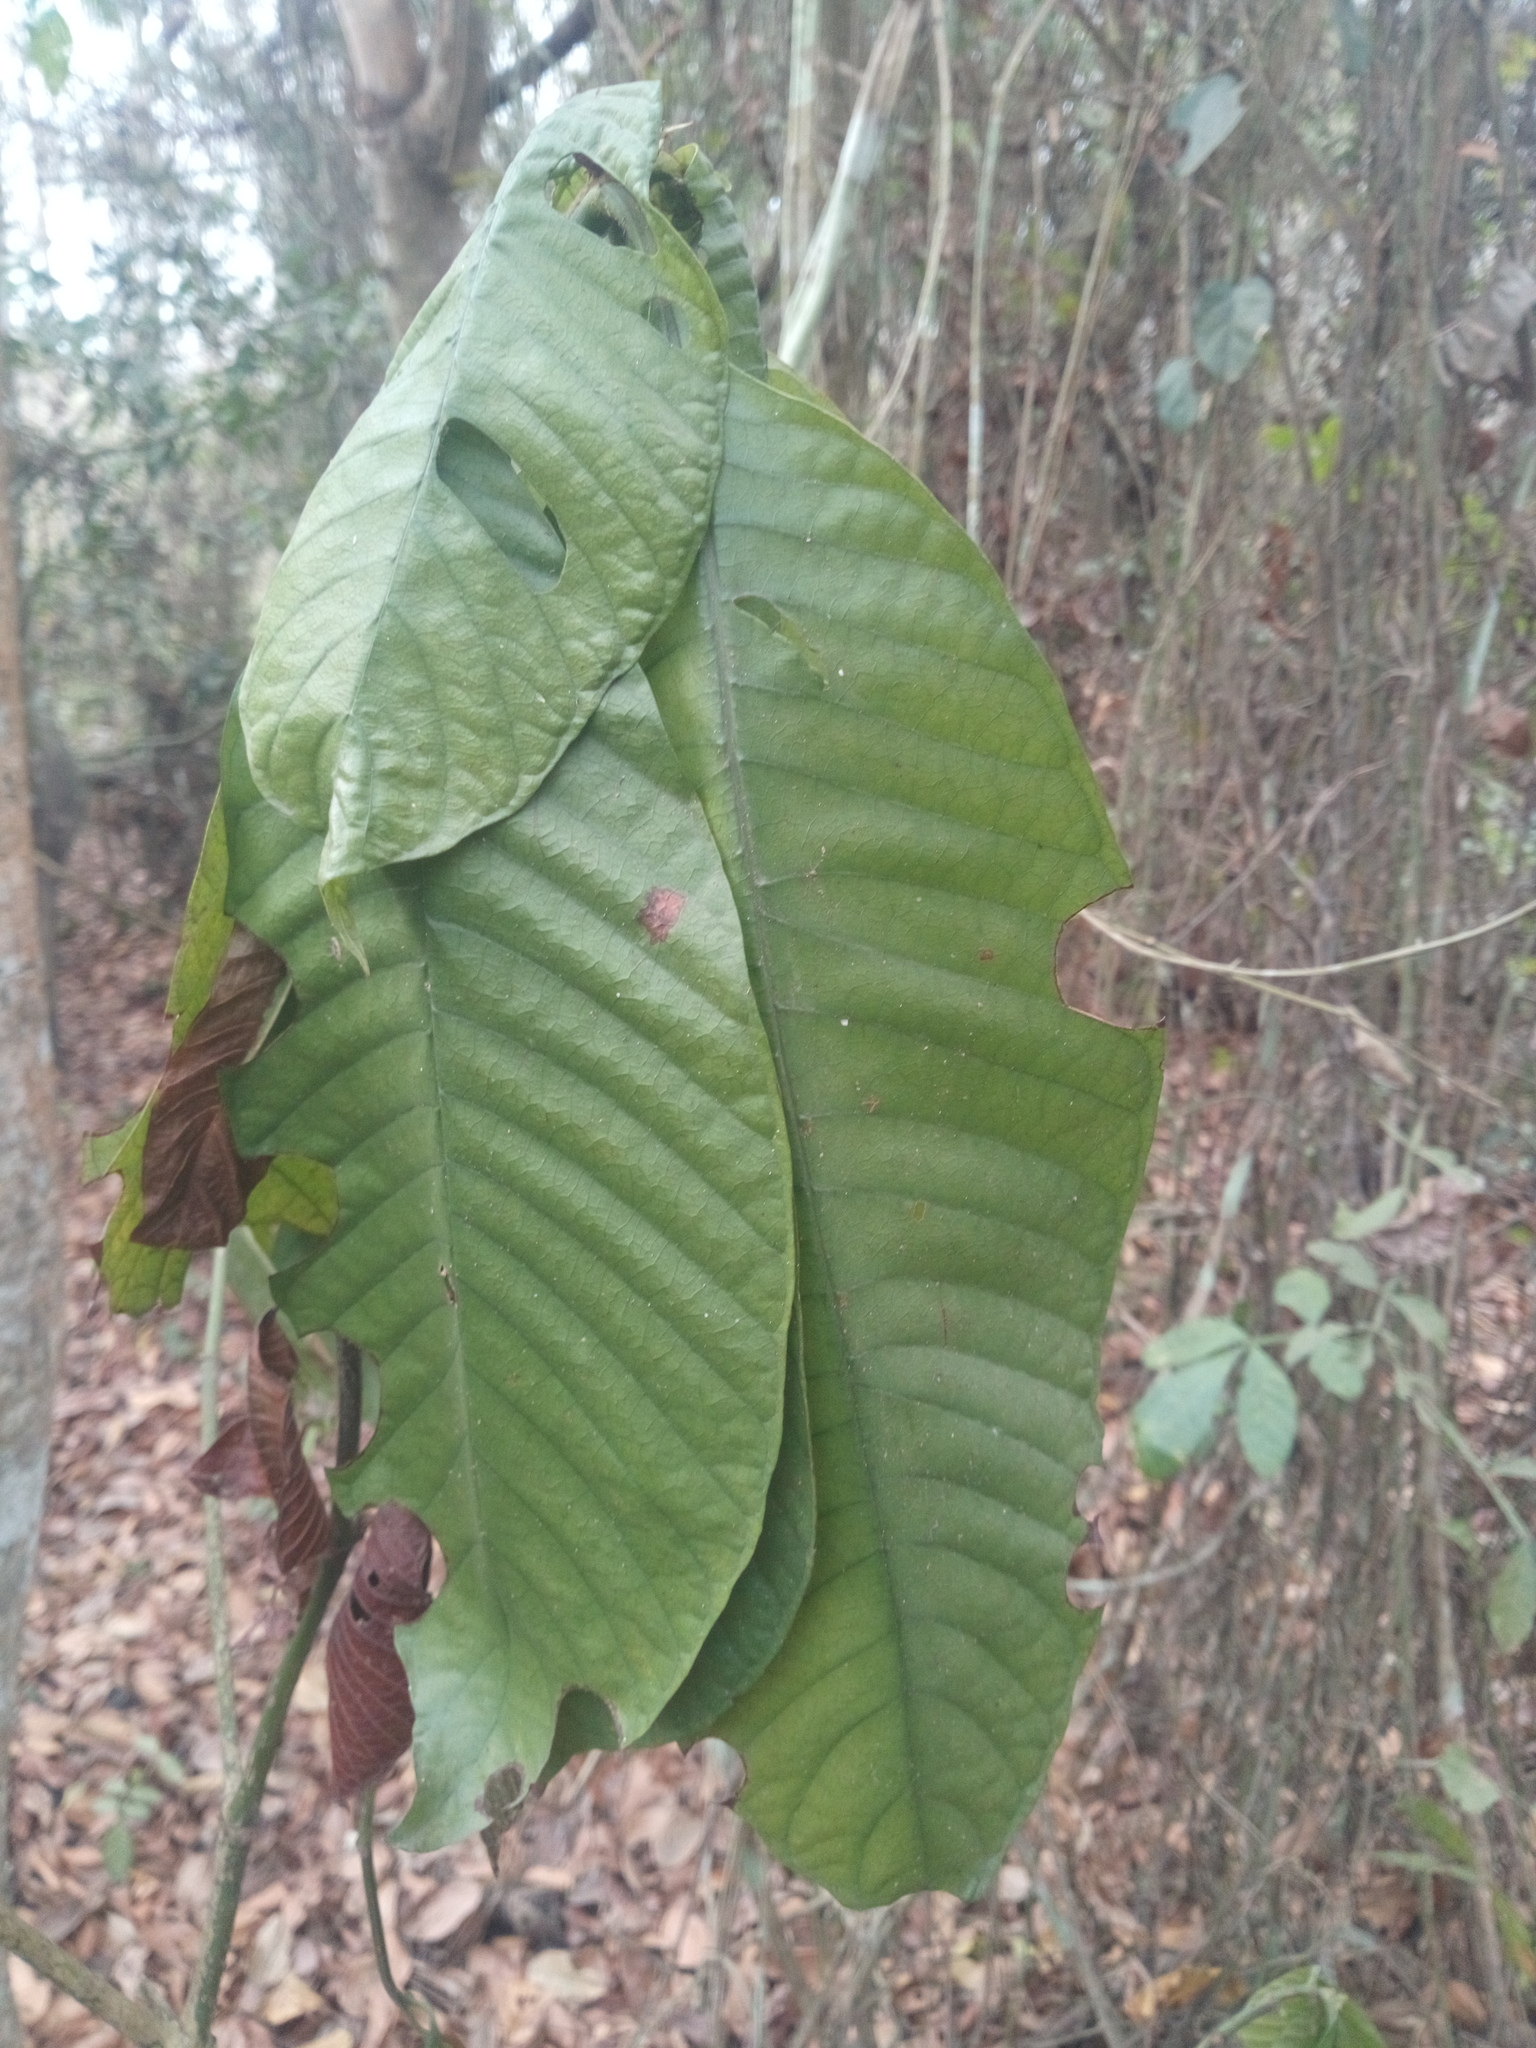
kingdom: Plantae
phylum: Tracheophyta
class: Magnoliopsida
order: Gentianales
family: Rubiaceae
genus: Psychotria
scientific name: Psychotria vogeliana
